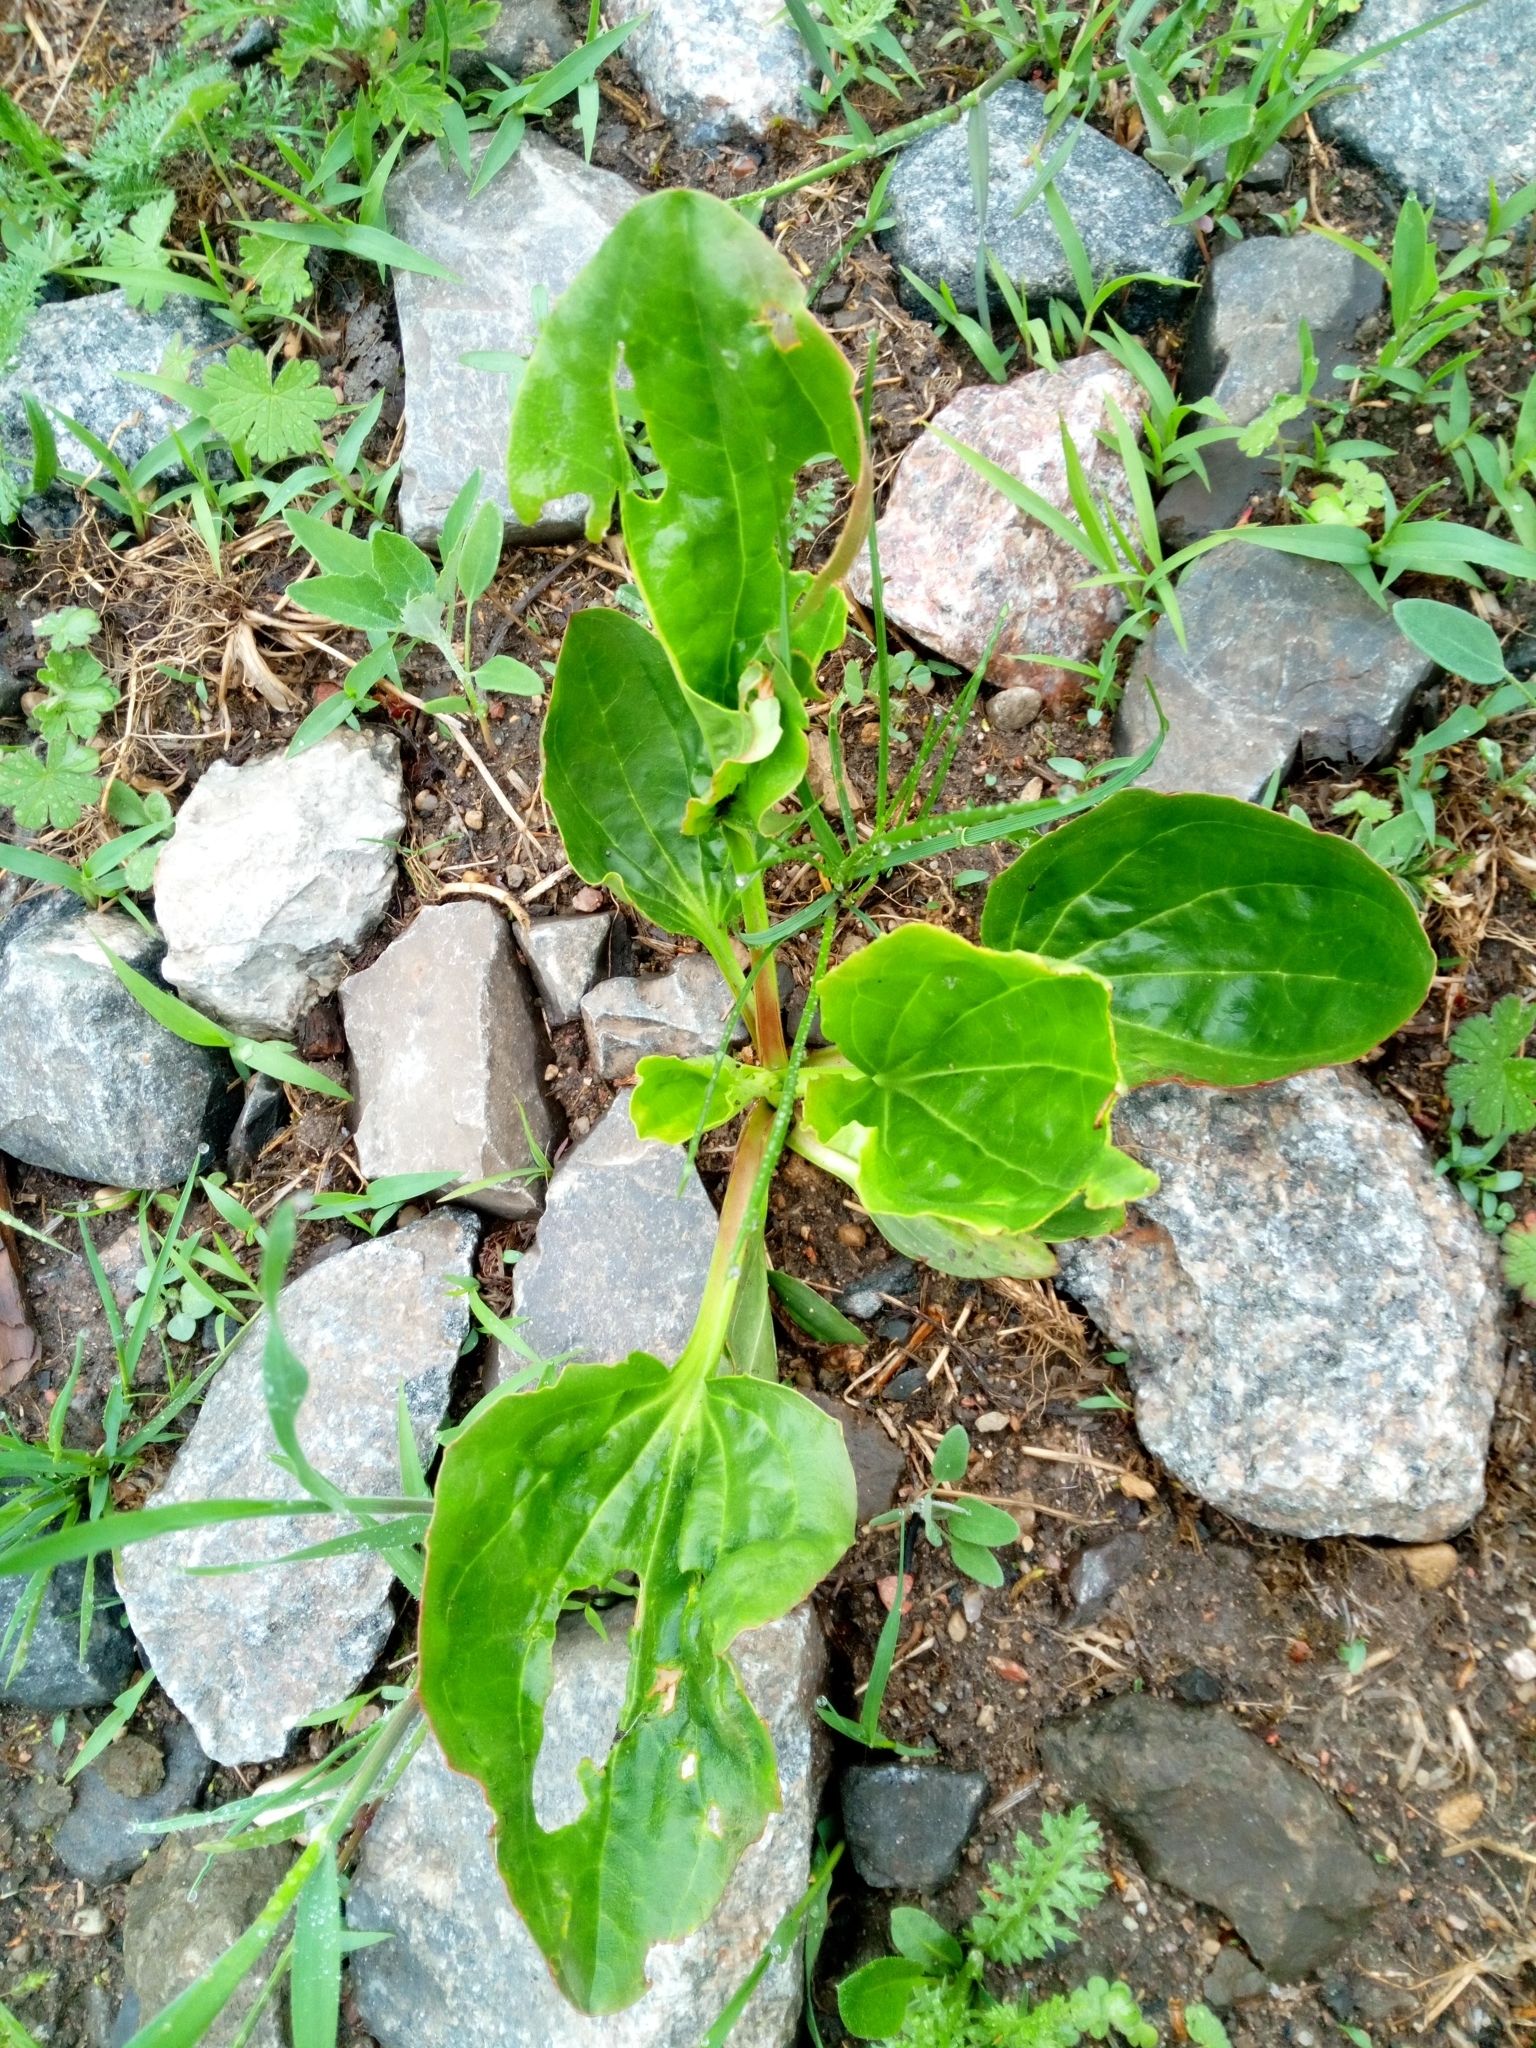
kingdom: Plantae
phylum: Tracheophyta
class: Magnoliopsida
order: Lamiales
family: Plantaginaceae
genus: Plantago
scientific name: Plantago major
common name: Common plantain
